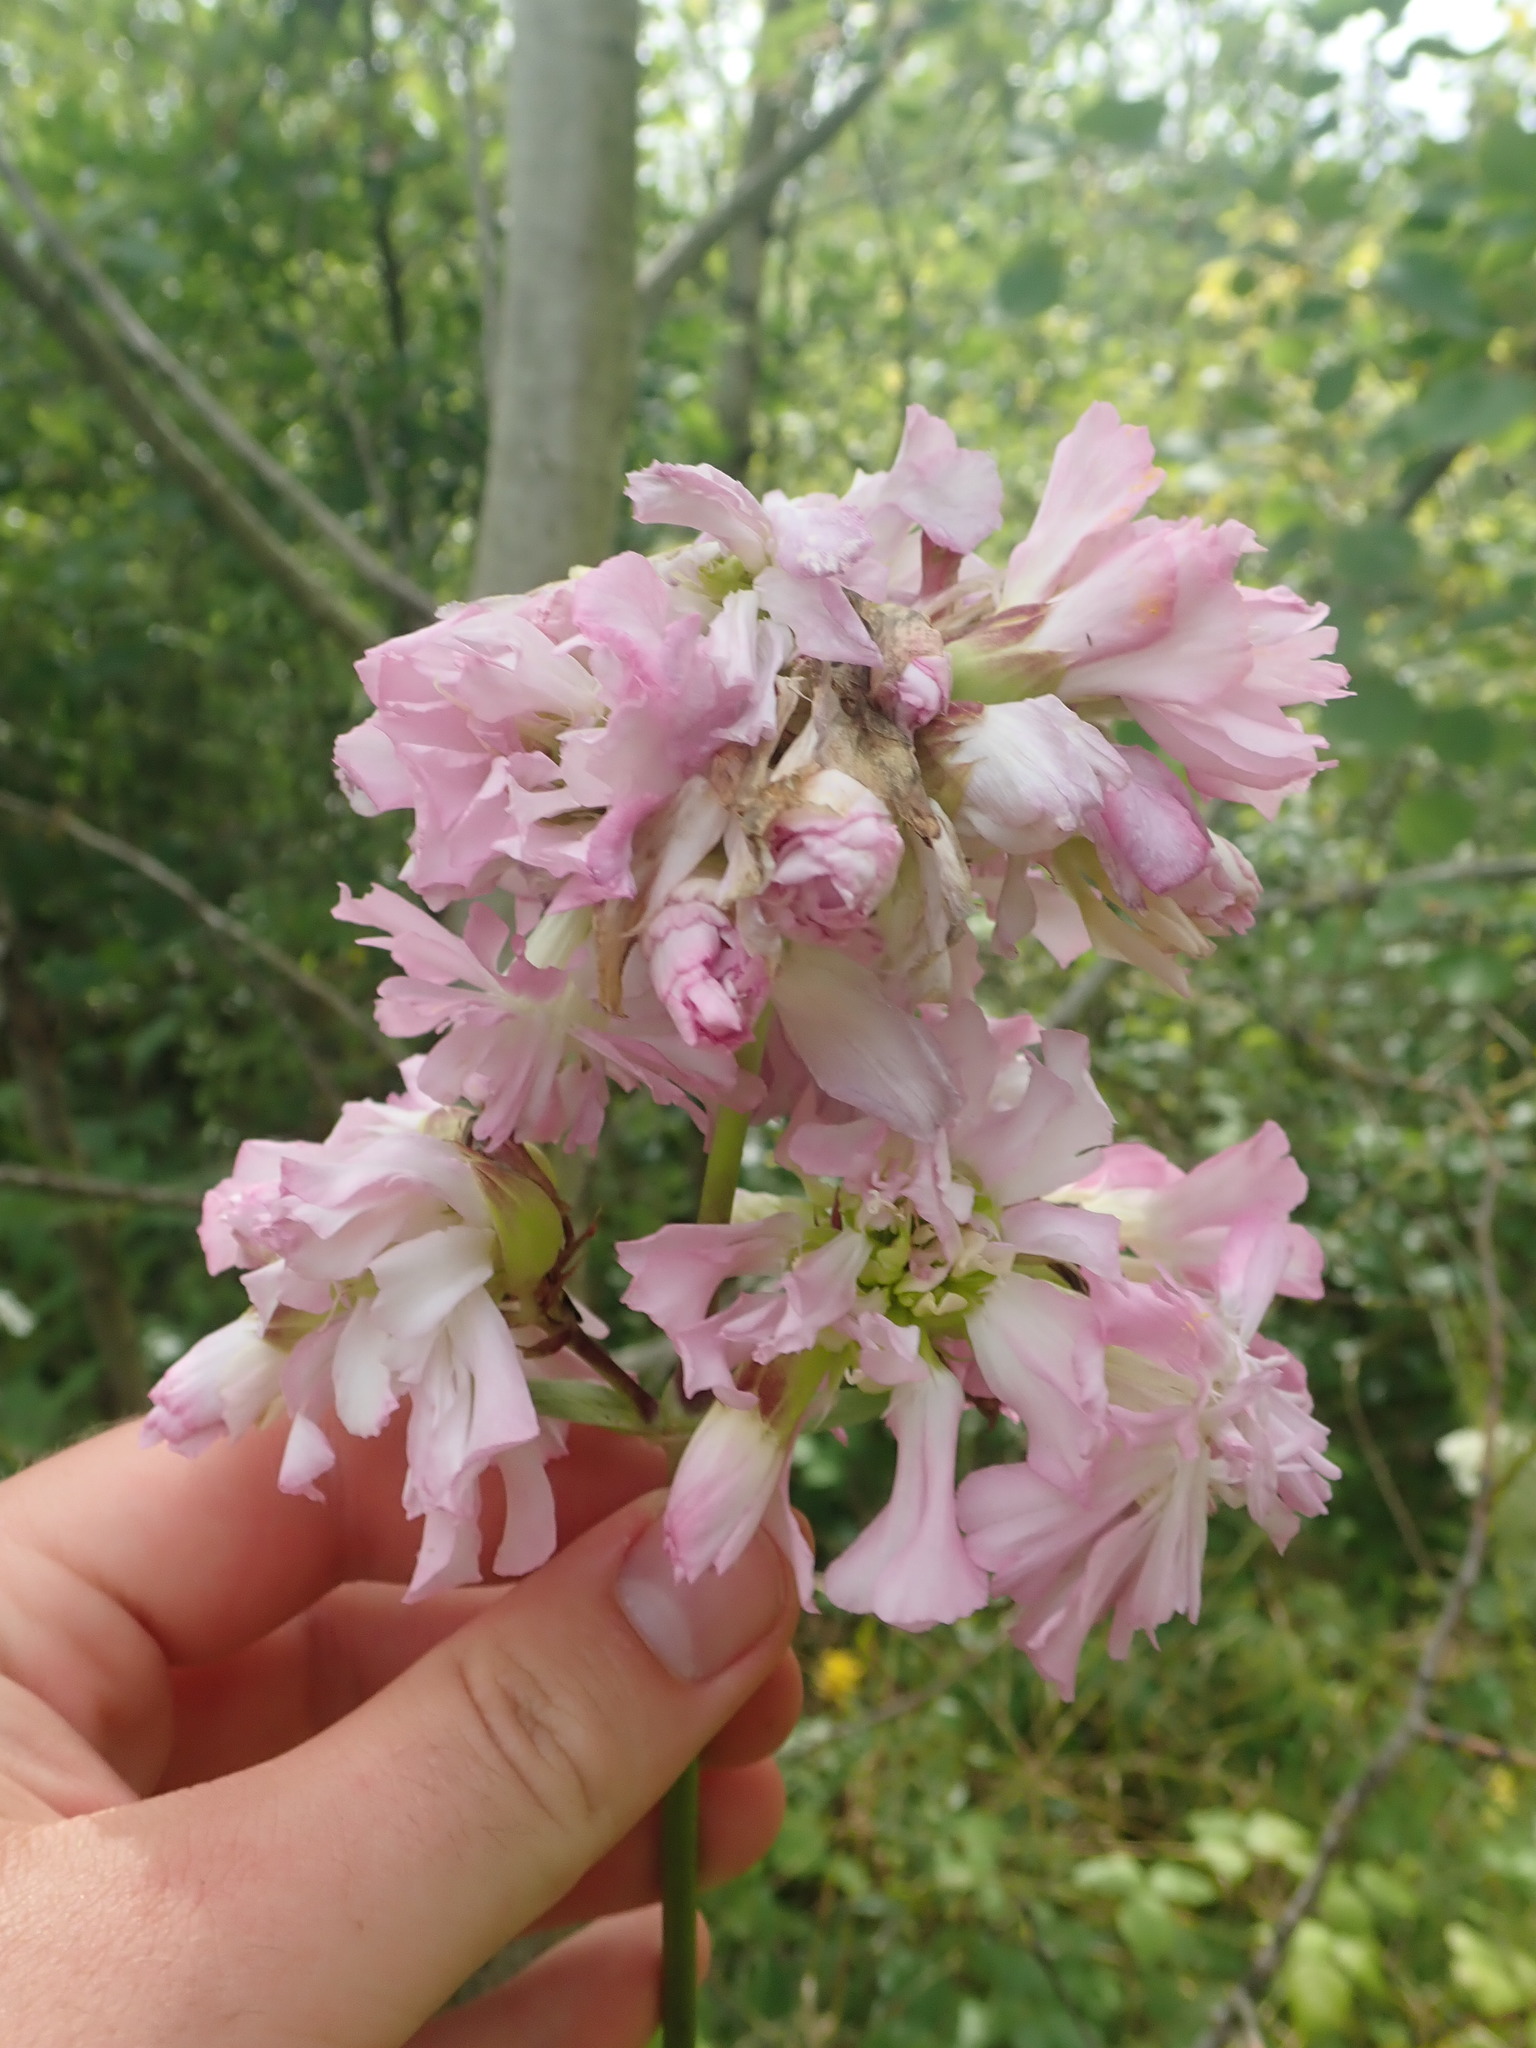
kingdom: Plantae
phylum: Tracheophyta
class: Magnoliopsida
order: Caryophyllales
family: Caryophyllaceae
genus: Saponaria
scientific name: Saponaria officinalis
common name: Soapwort
